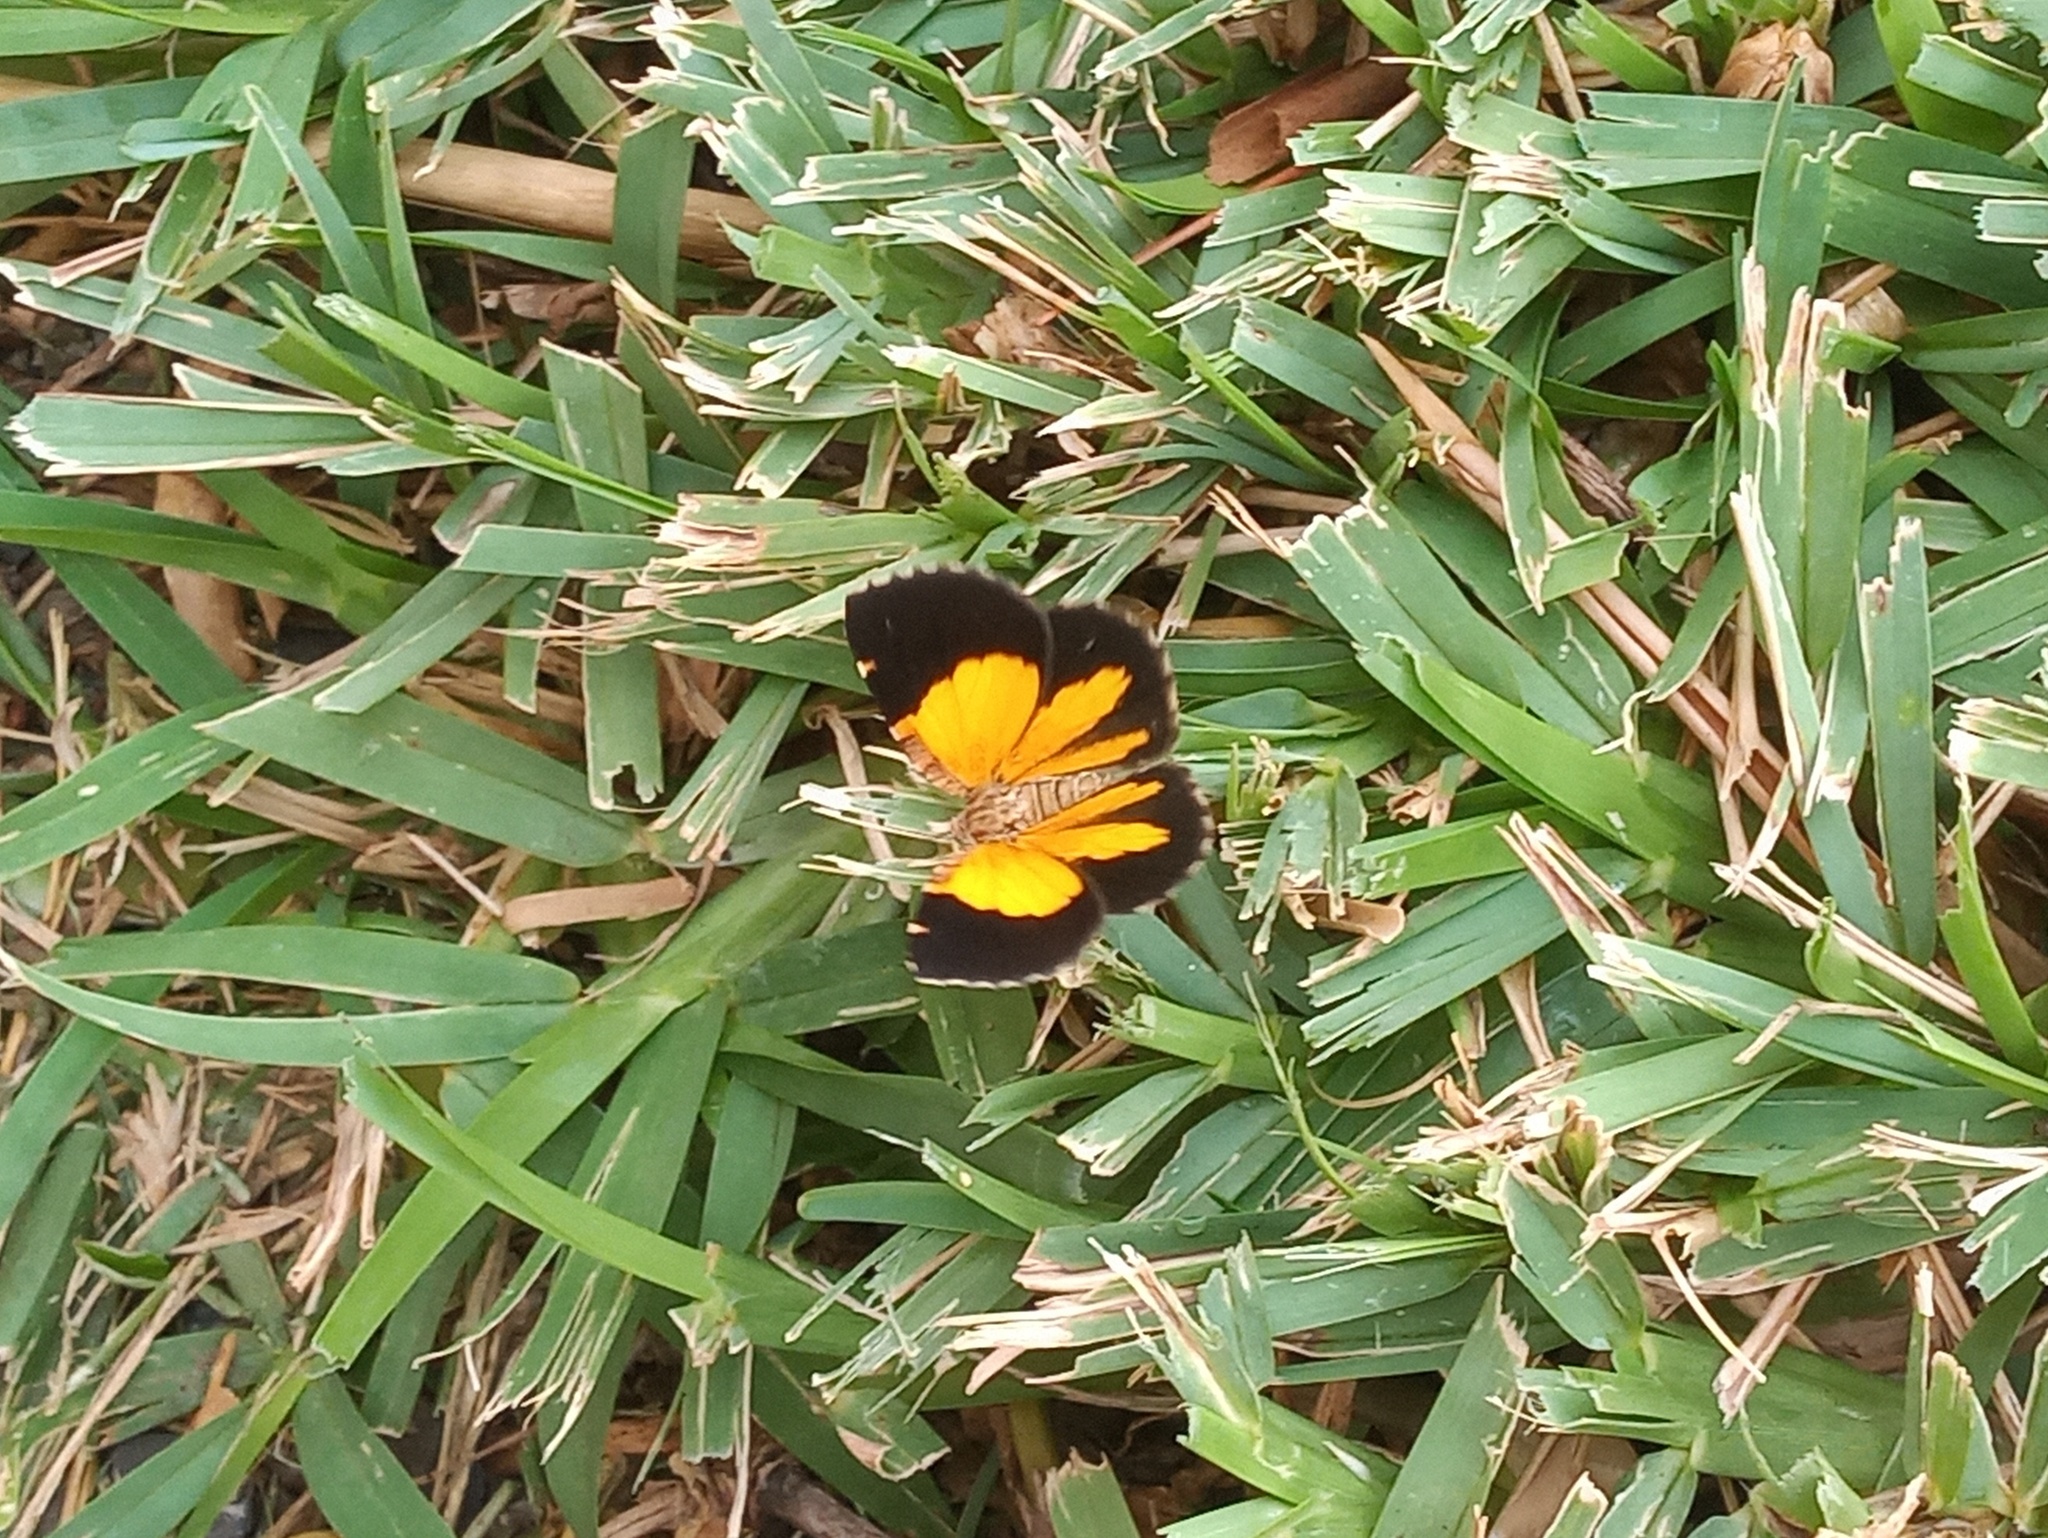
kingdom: Animalia
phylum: Arthropoda
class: Insecta
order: Lepidoptera
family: Geometridae
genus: Heterusia
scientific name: Heterusia atalantata
